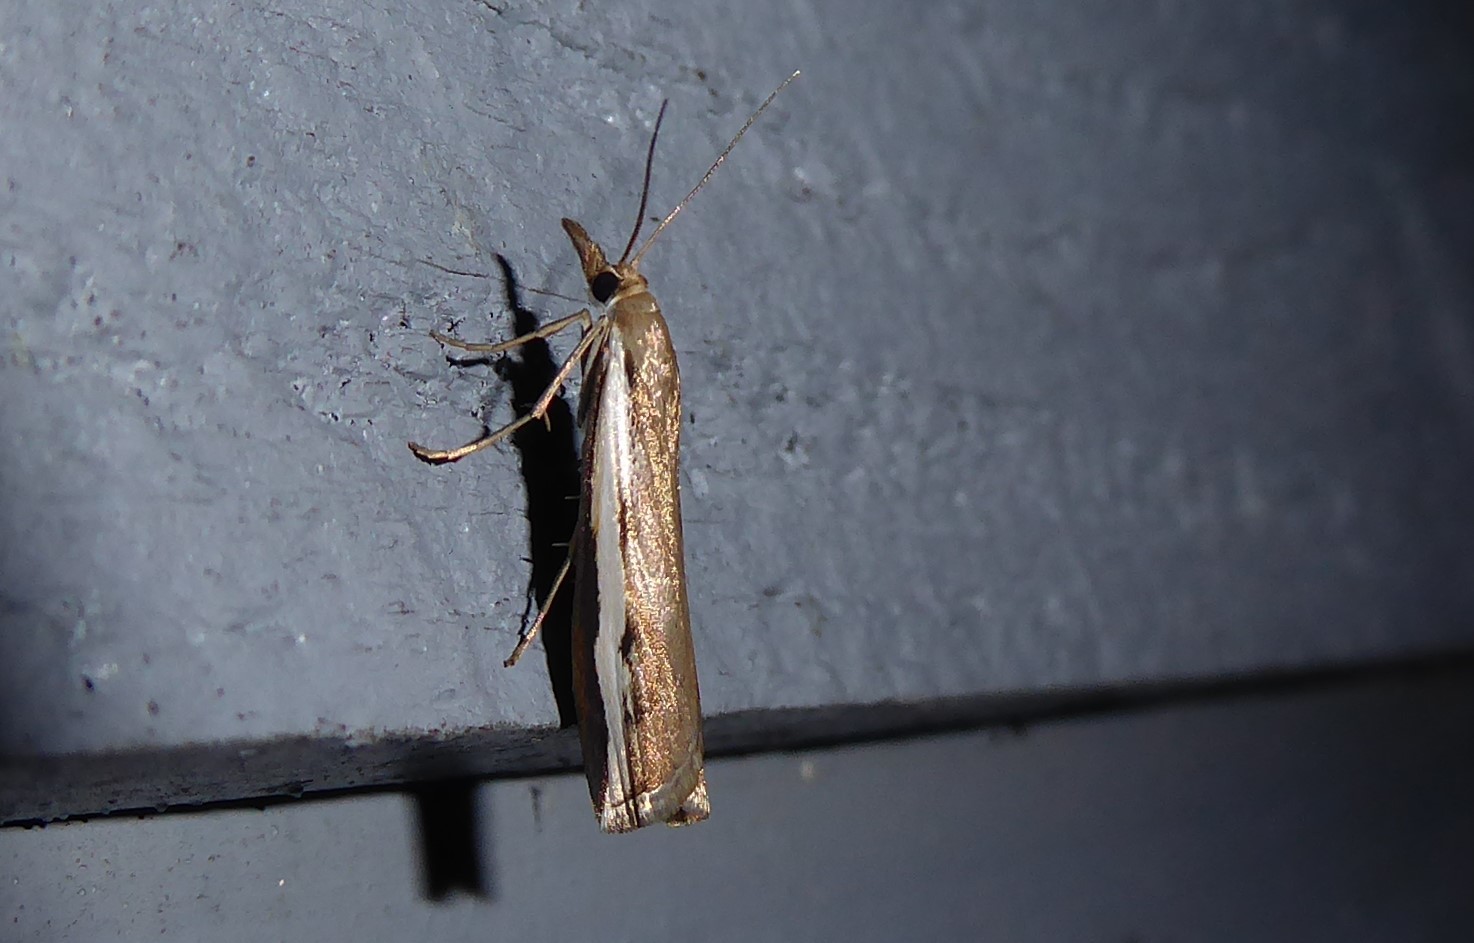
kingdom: Animalia
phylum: Arthropoda
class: Insecta
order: Lepidoptera
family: Crambidae
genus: Orocrambus
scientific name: Orocrambus flexuosellus
